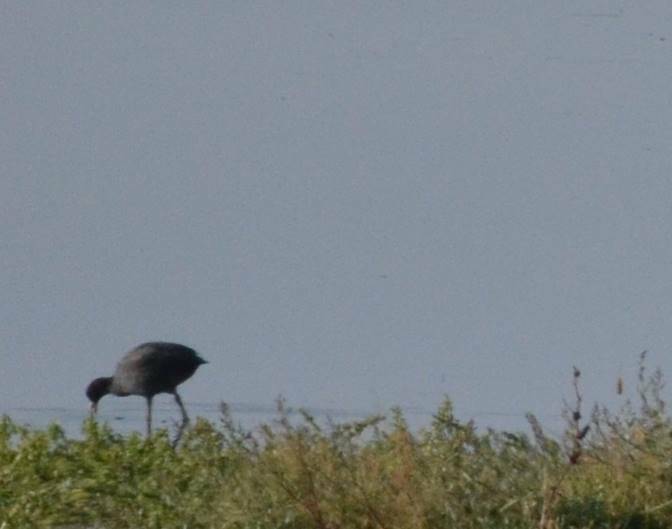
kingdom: Animalia
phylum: Chordata
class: Aves
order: Gruiformes
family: Rallidae
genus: Fulica
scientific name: Fulica atra
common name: Eurasian coot
